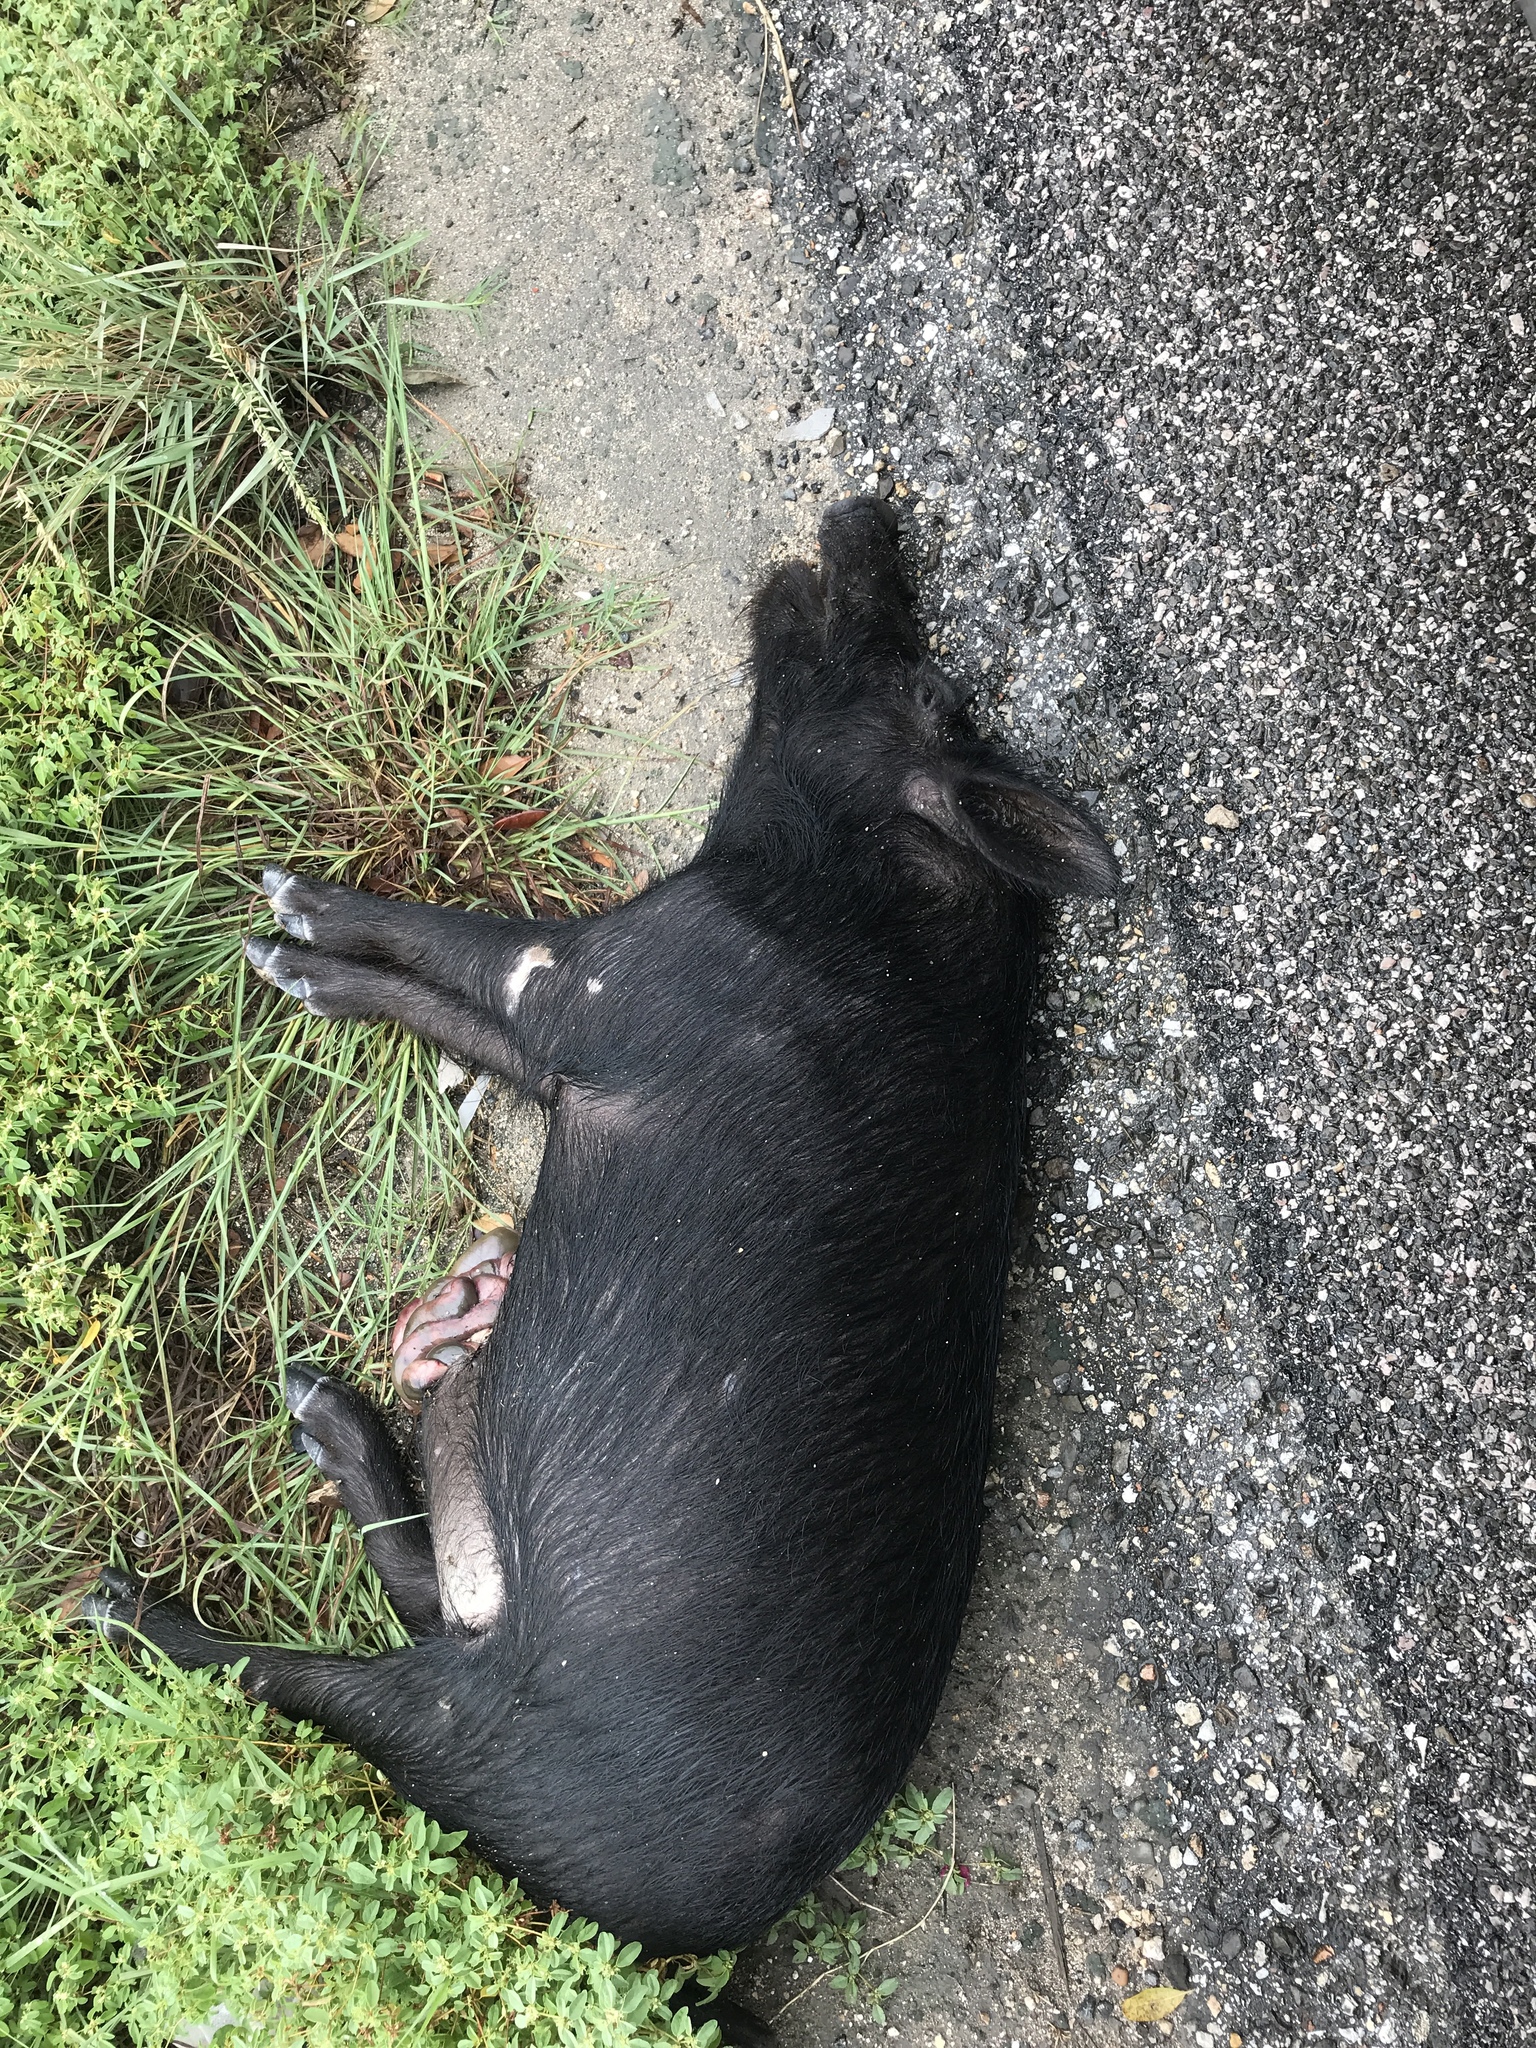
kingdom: Animalia
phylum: Chordata
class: Mammalia
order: Artiodactyla
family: Suidae
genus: Sus
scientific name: Sus scrofa
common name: Wild boar
